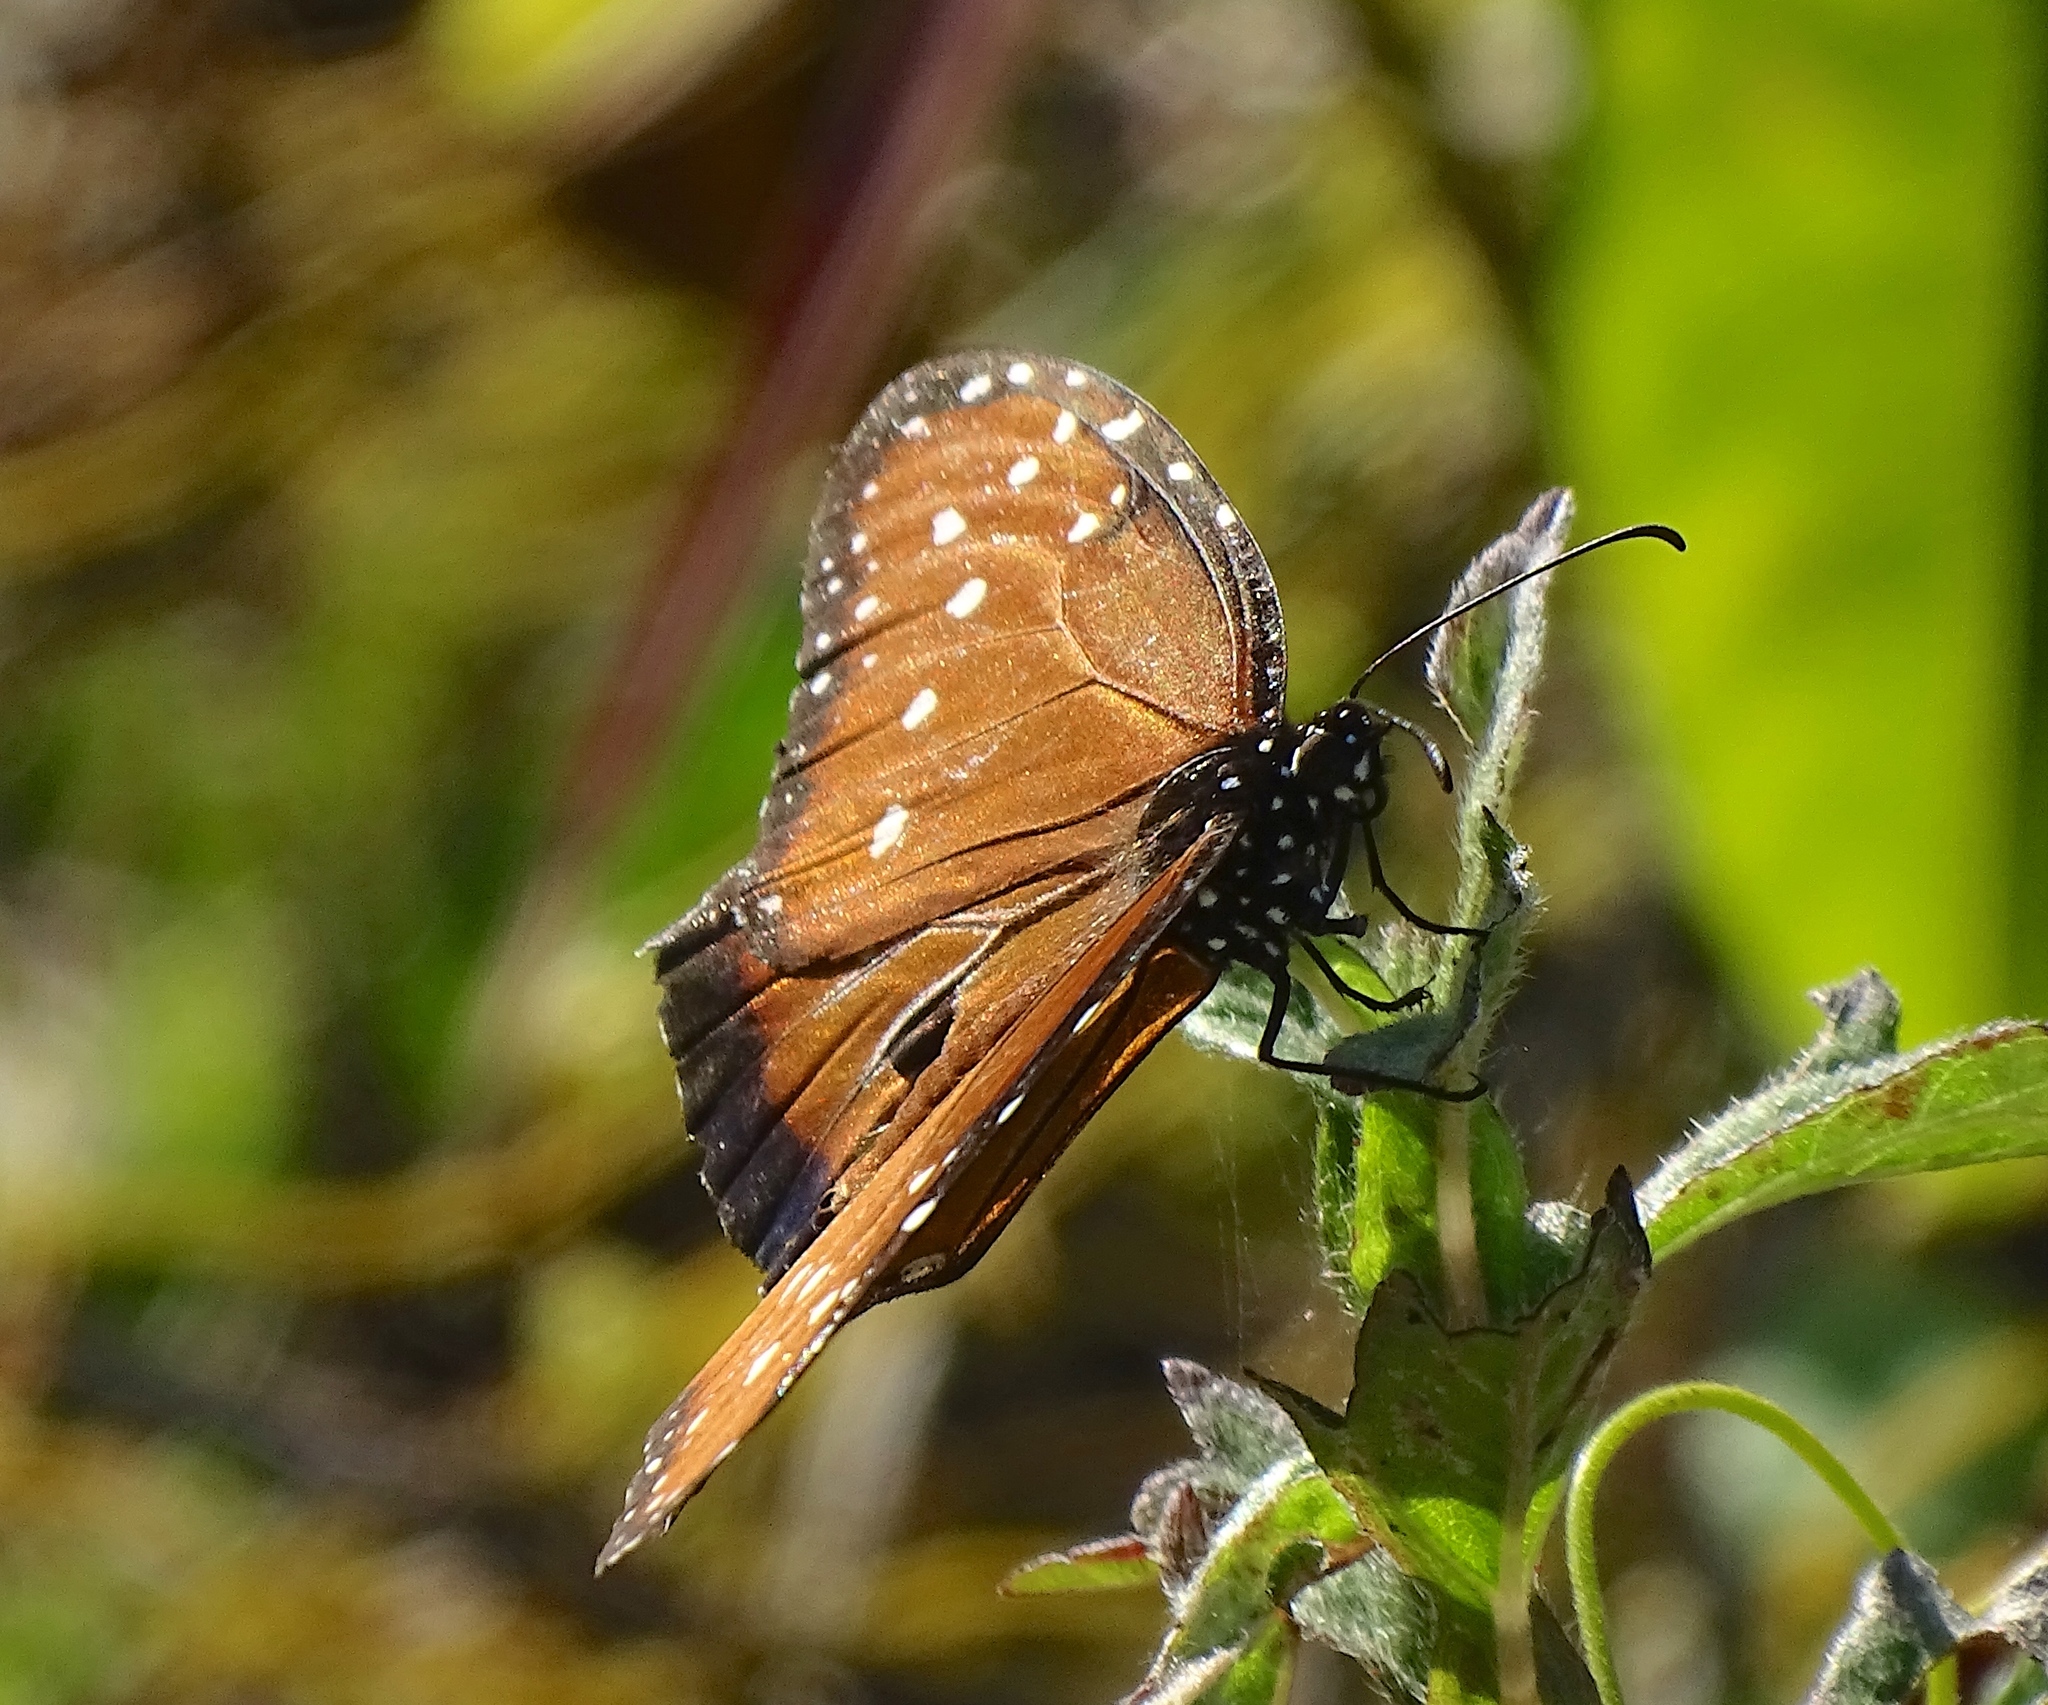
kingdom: Animalia
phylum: Arthropoda
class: Insecta
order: Lepidoptera
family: Nymphalidae
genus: Danaus
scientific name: Danaus gilippus
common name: Queen
